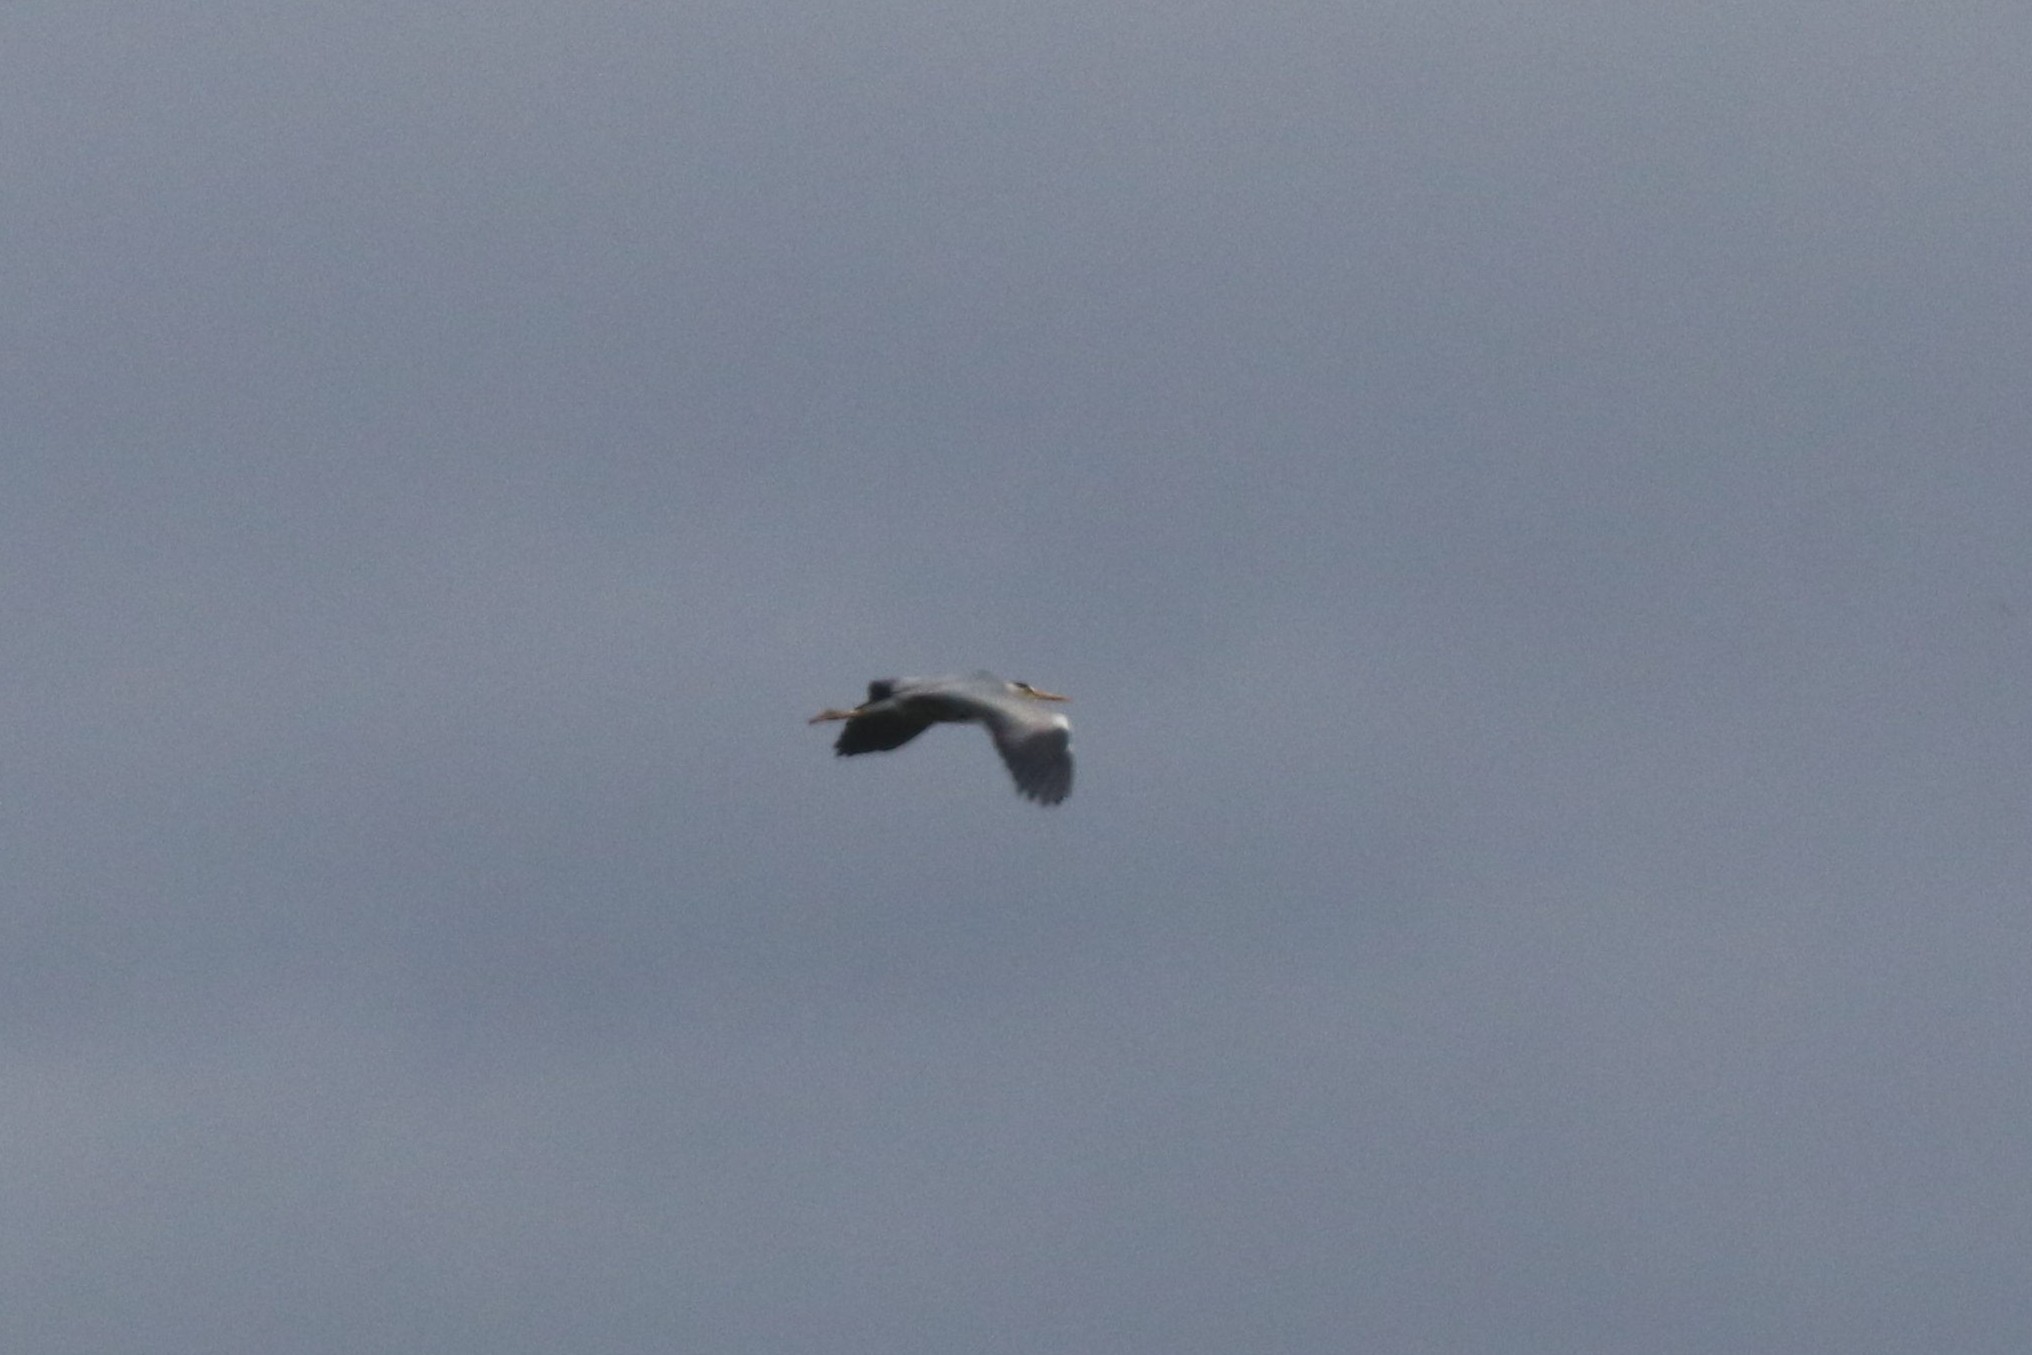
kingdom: Animalia
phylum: Chordata
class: Aves
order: Pelecaniformes
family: Ardeidae
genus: Ardea
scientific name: Ardea cinerea
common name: Grey heron
